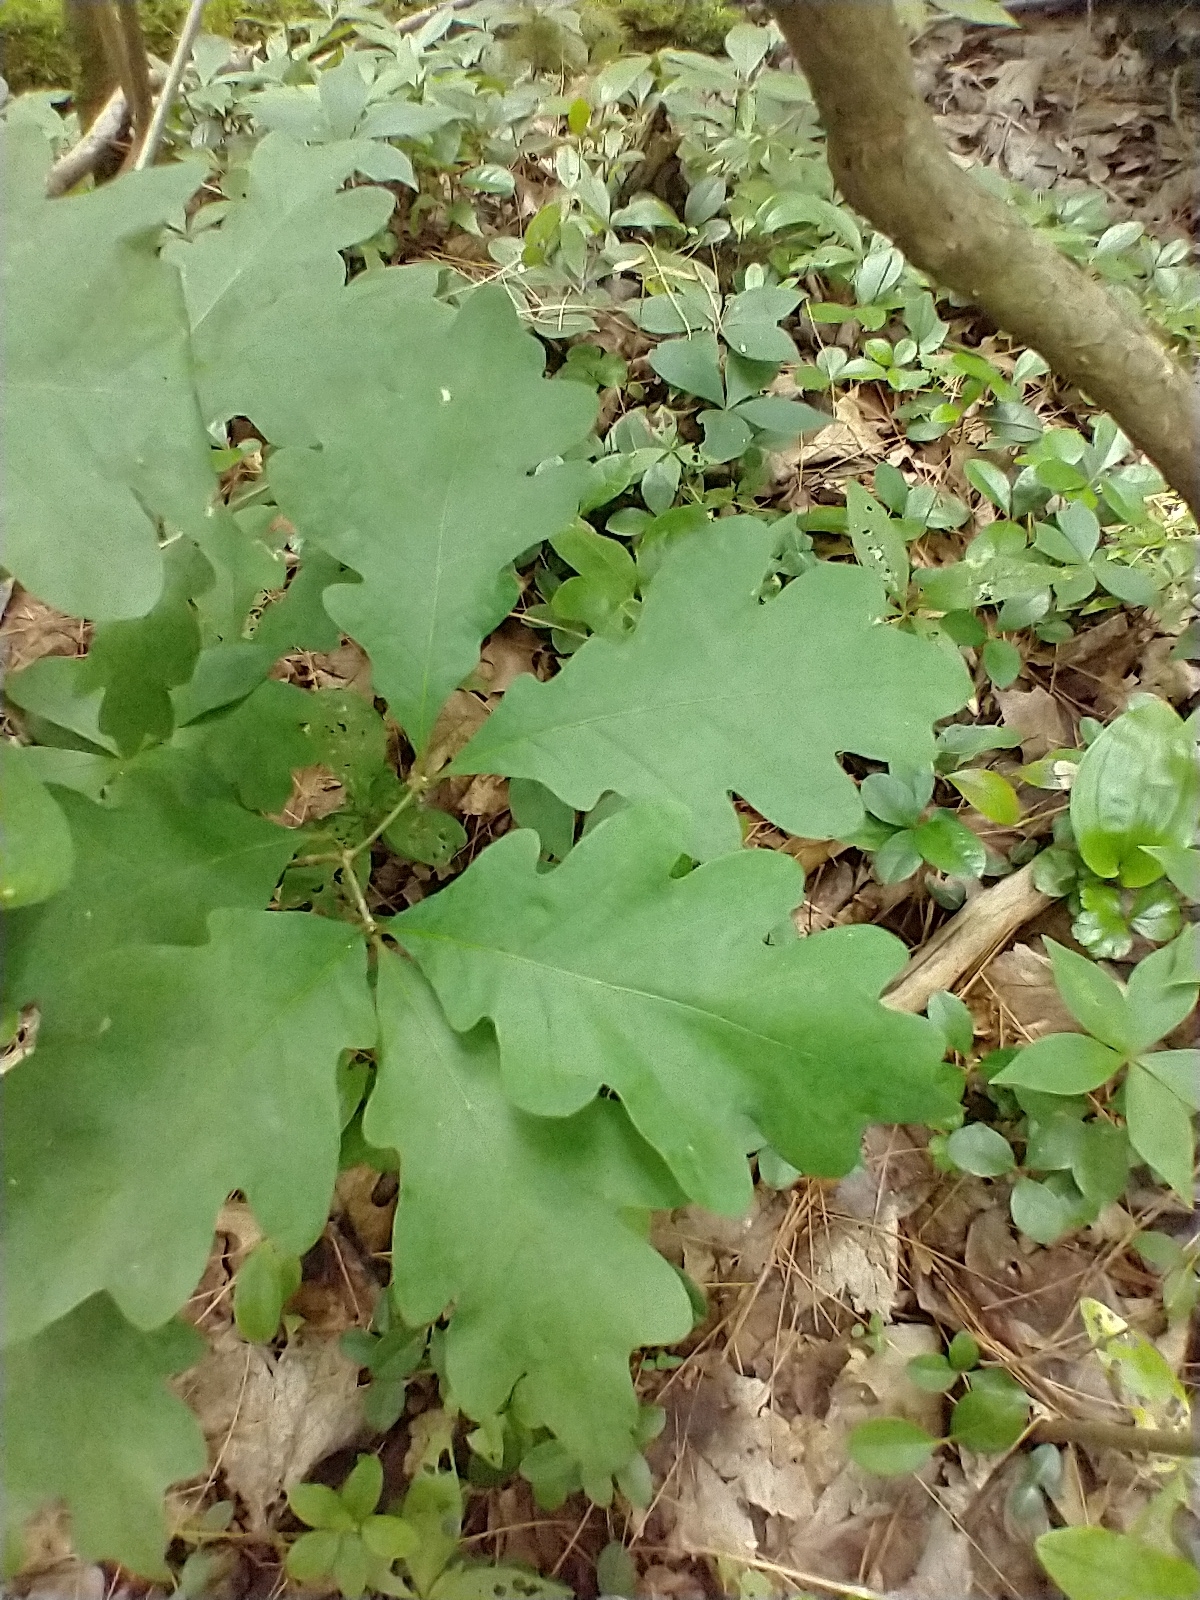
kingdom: Plantae
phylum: Tracheophyta
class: Magnoliopsida
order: Fagales
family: Fagaceae
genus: Quercus
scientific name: Quercus alba
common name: White oak
